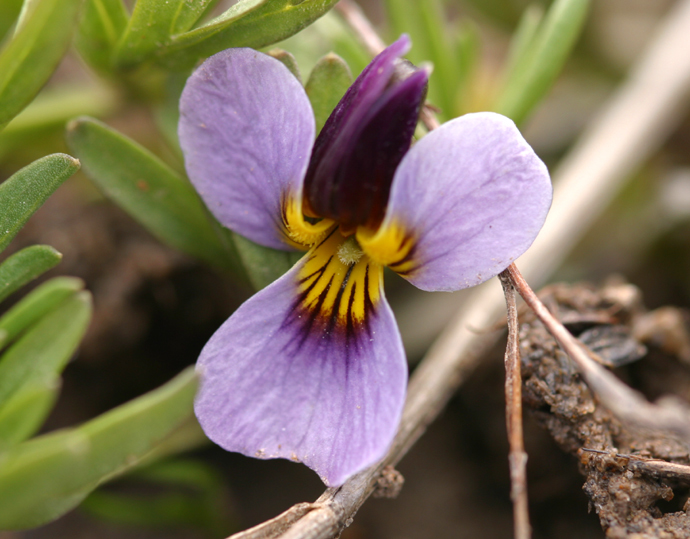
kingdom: Plantae
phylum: Tracheophyta
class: Magnoliopsida
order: Malpighiales
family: Violaceae
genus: Viola
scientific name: Viola beckwithii
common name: Beckwith's violet
